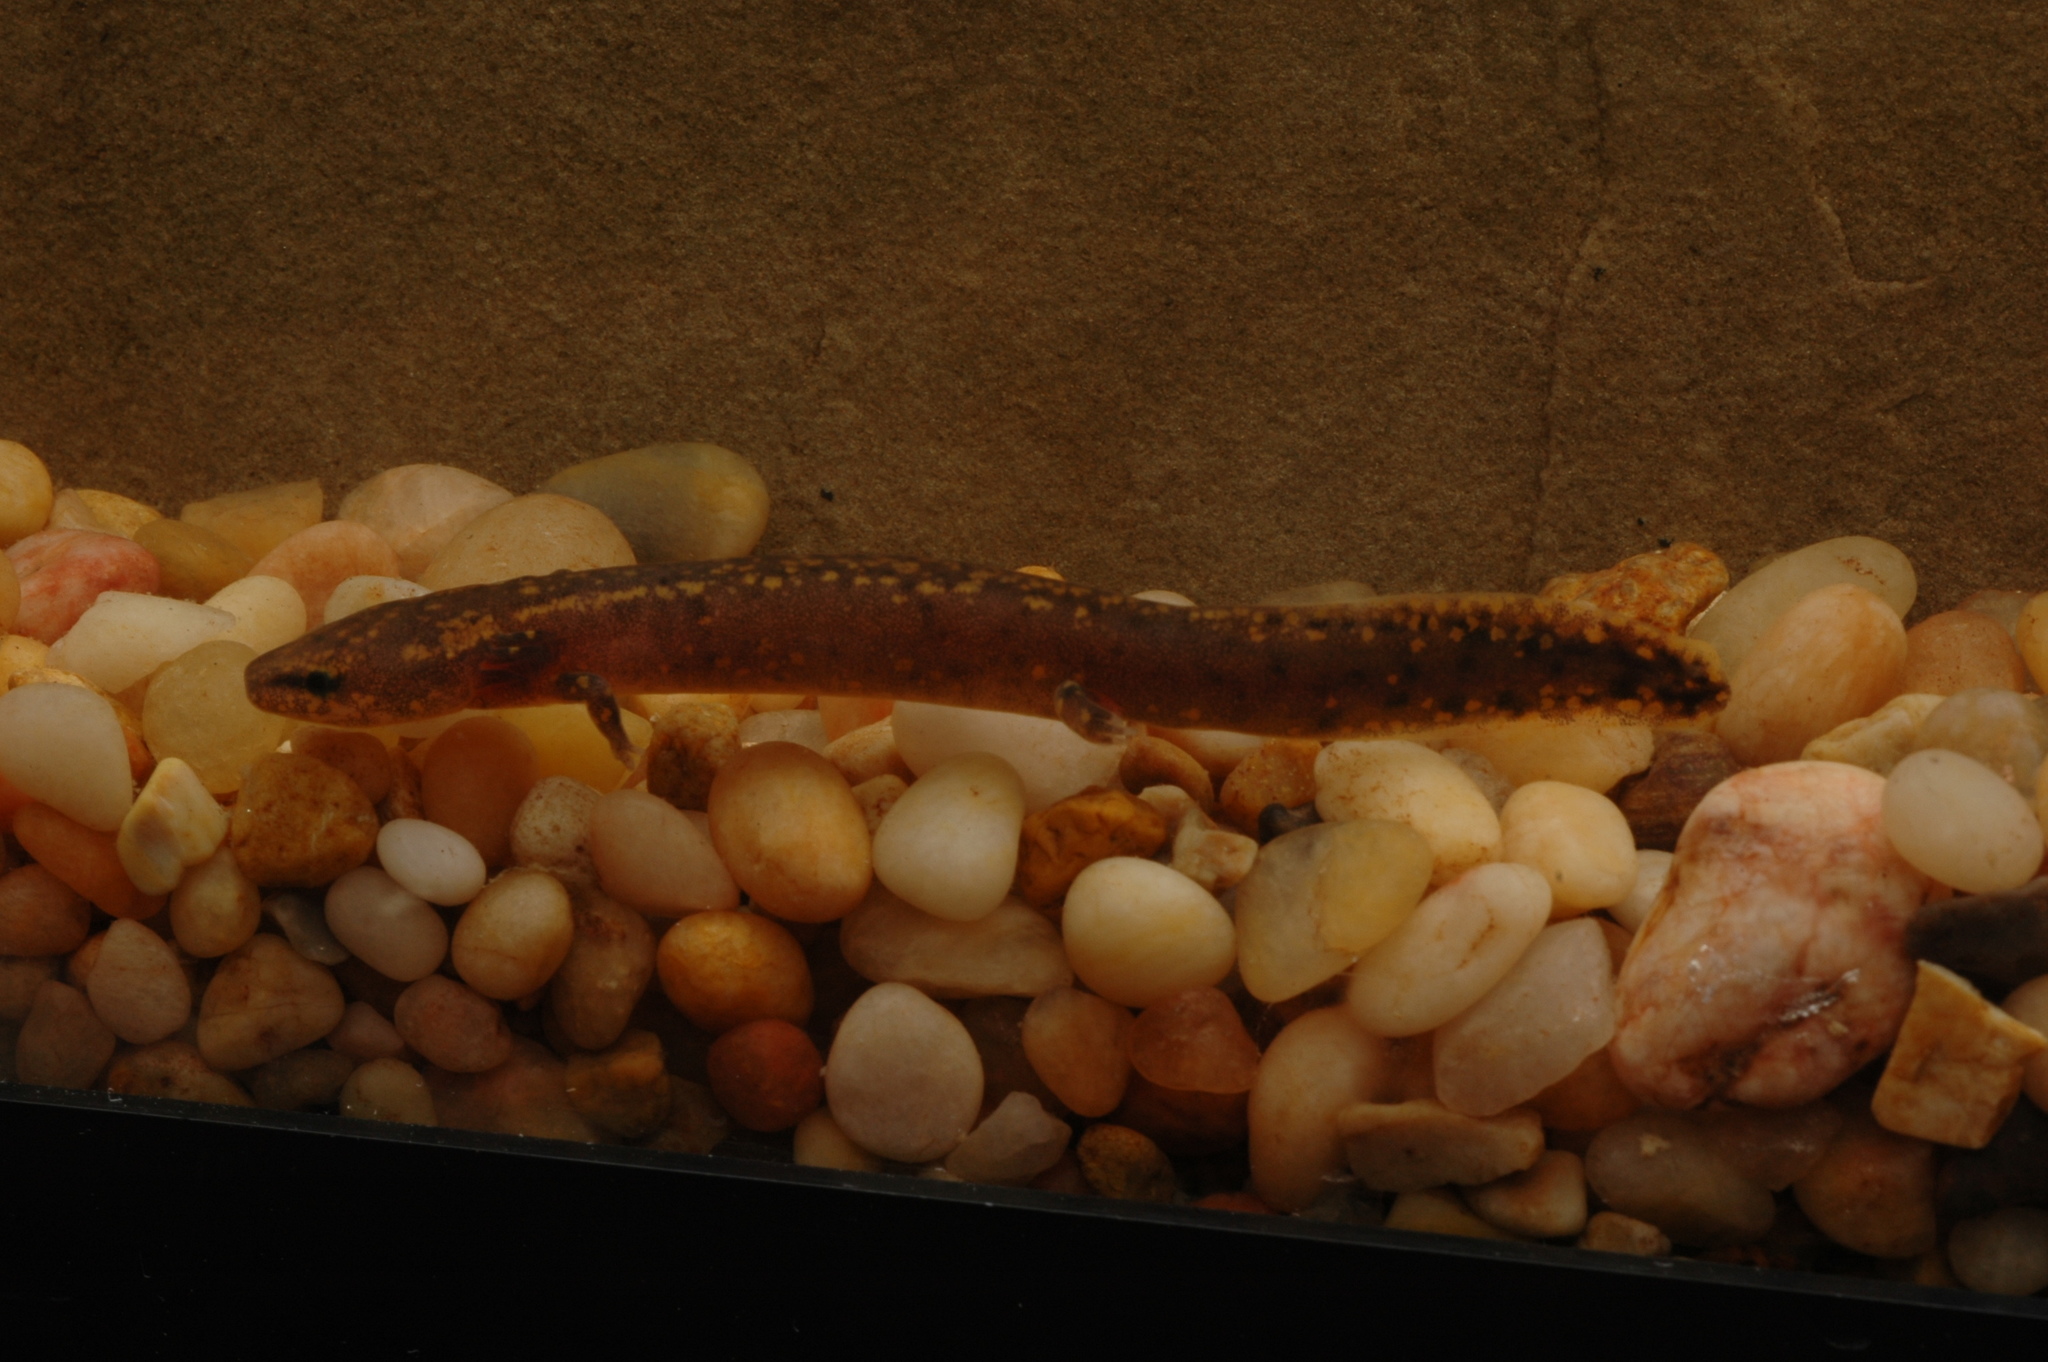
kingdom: Animalia
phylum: Chordata
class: Amphibia
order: Caudata
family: Proteidae
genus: Necturus
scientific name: Necturus beyeri
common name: Gulf coast waterdog
